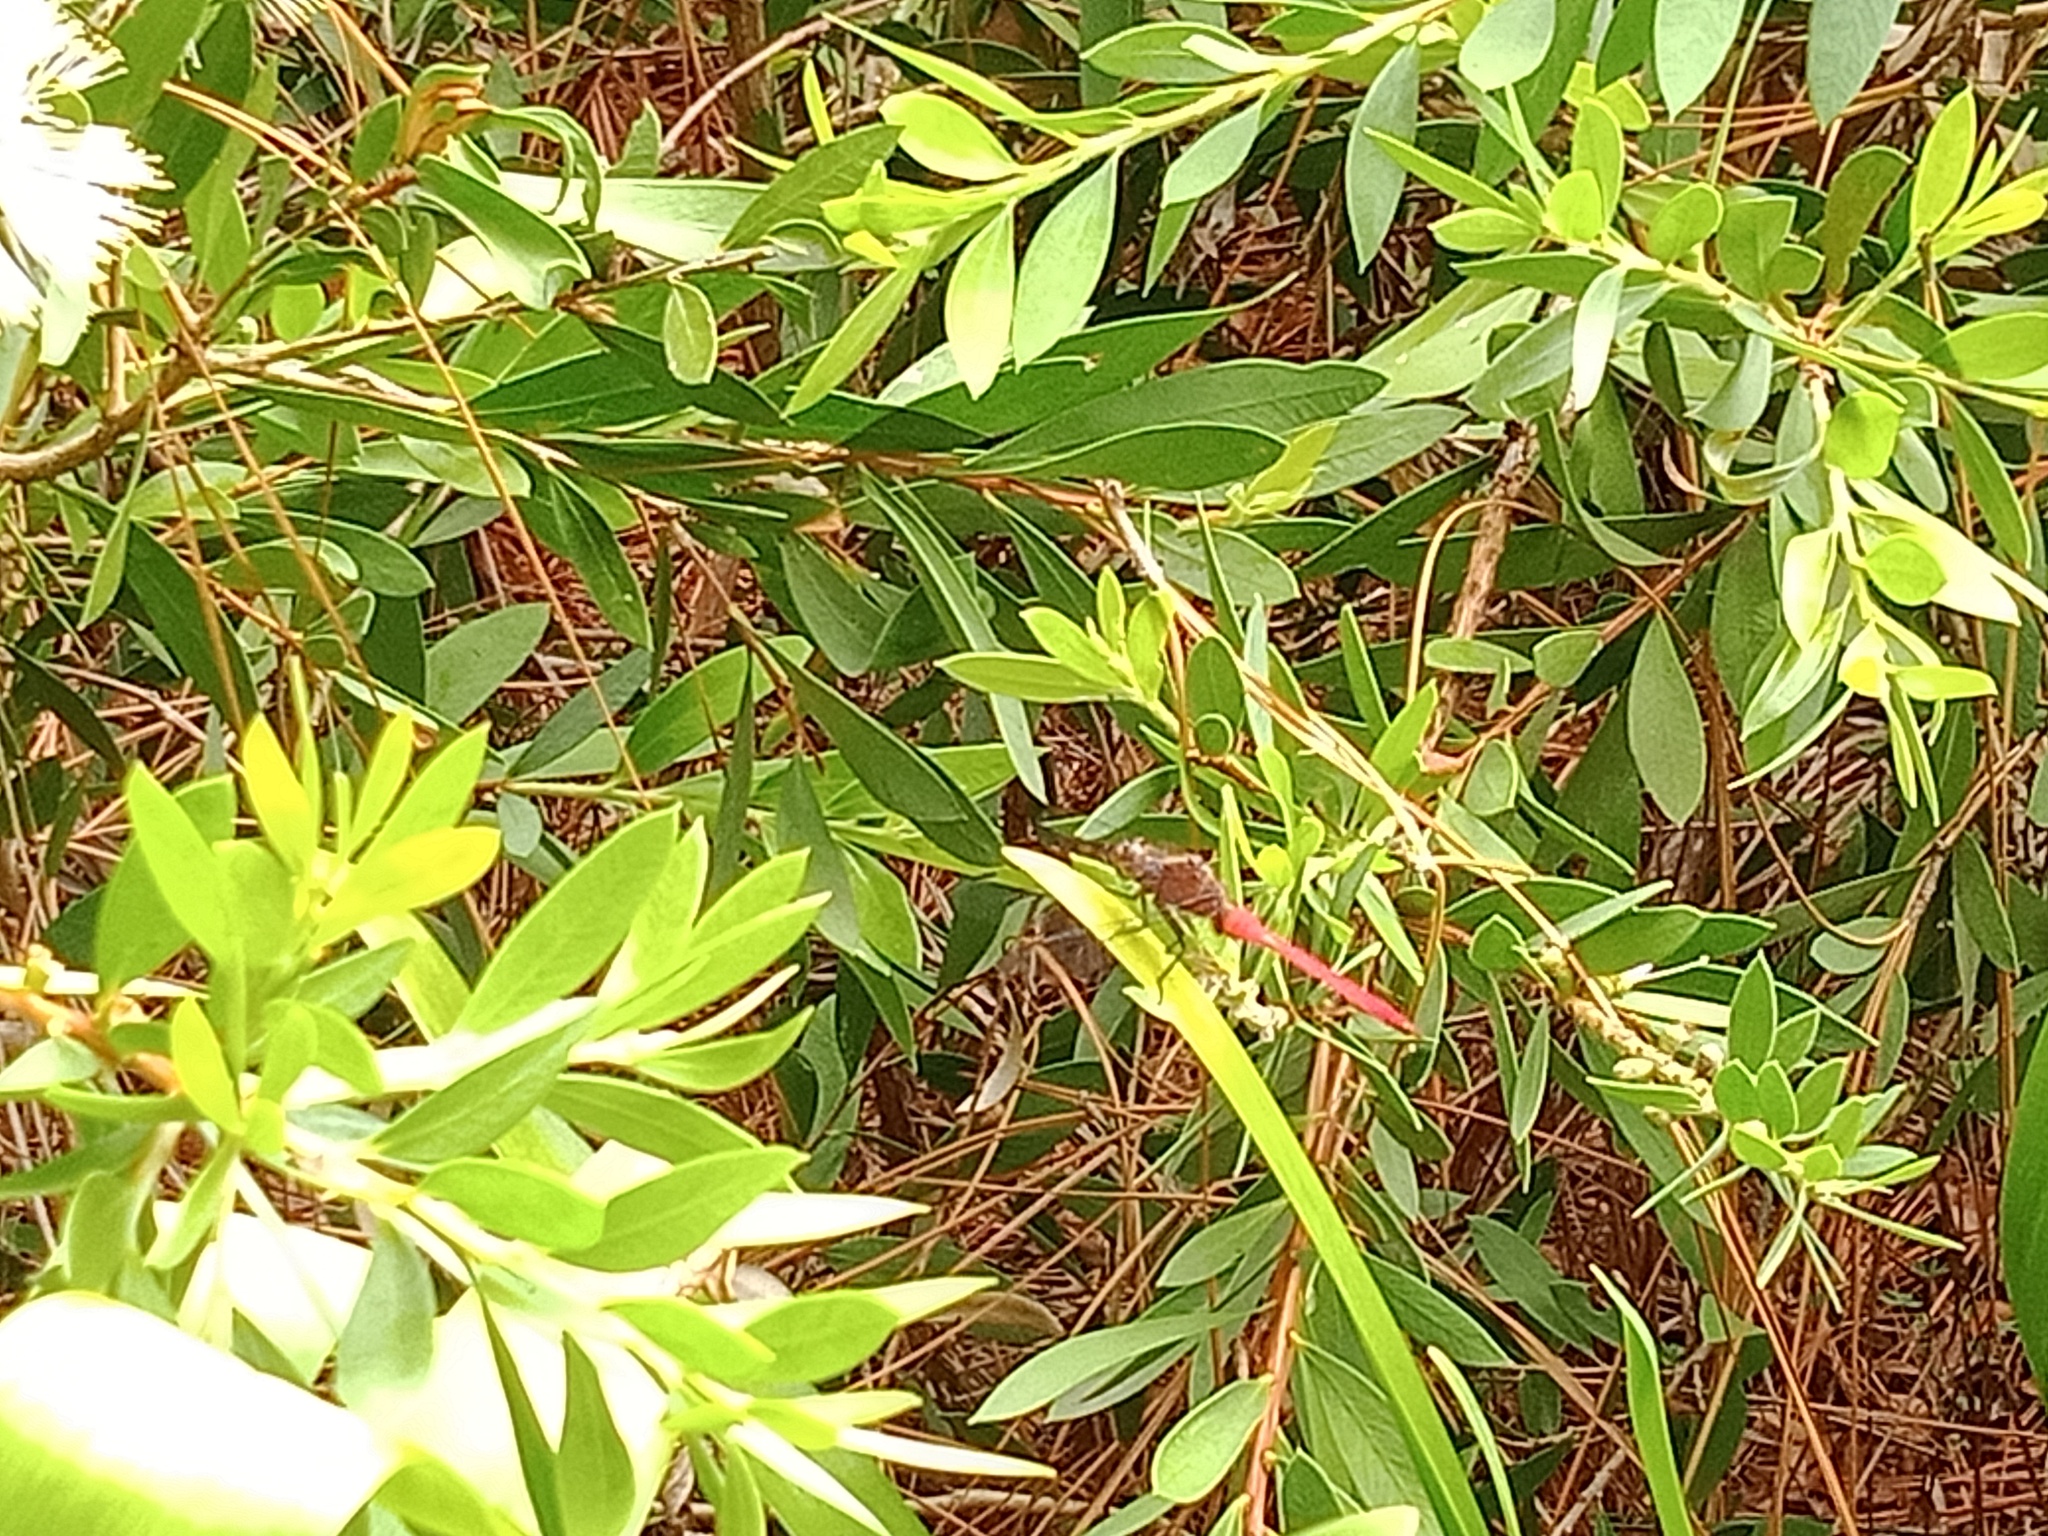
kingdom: Animalia
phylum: Arthropoda
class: Insecta
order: Odonata
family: Libellulidae
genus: Orthetrum
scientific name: Orthetrum villosovittatum
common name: Firery skimmer
